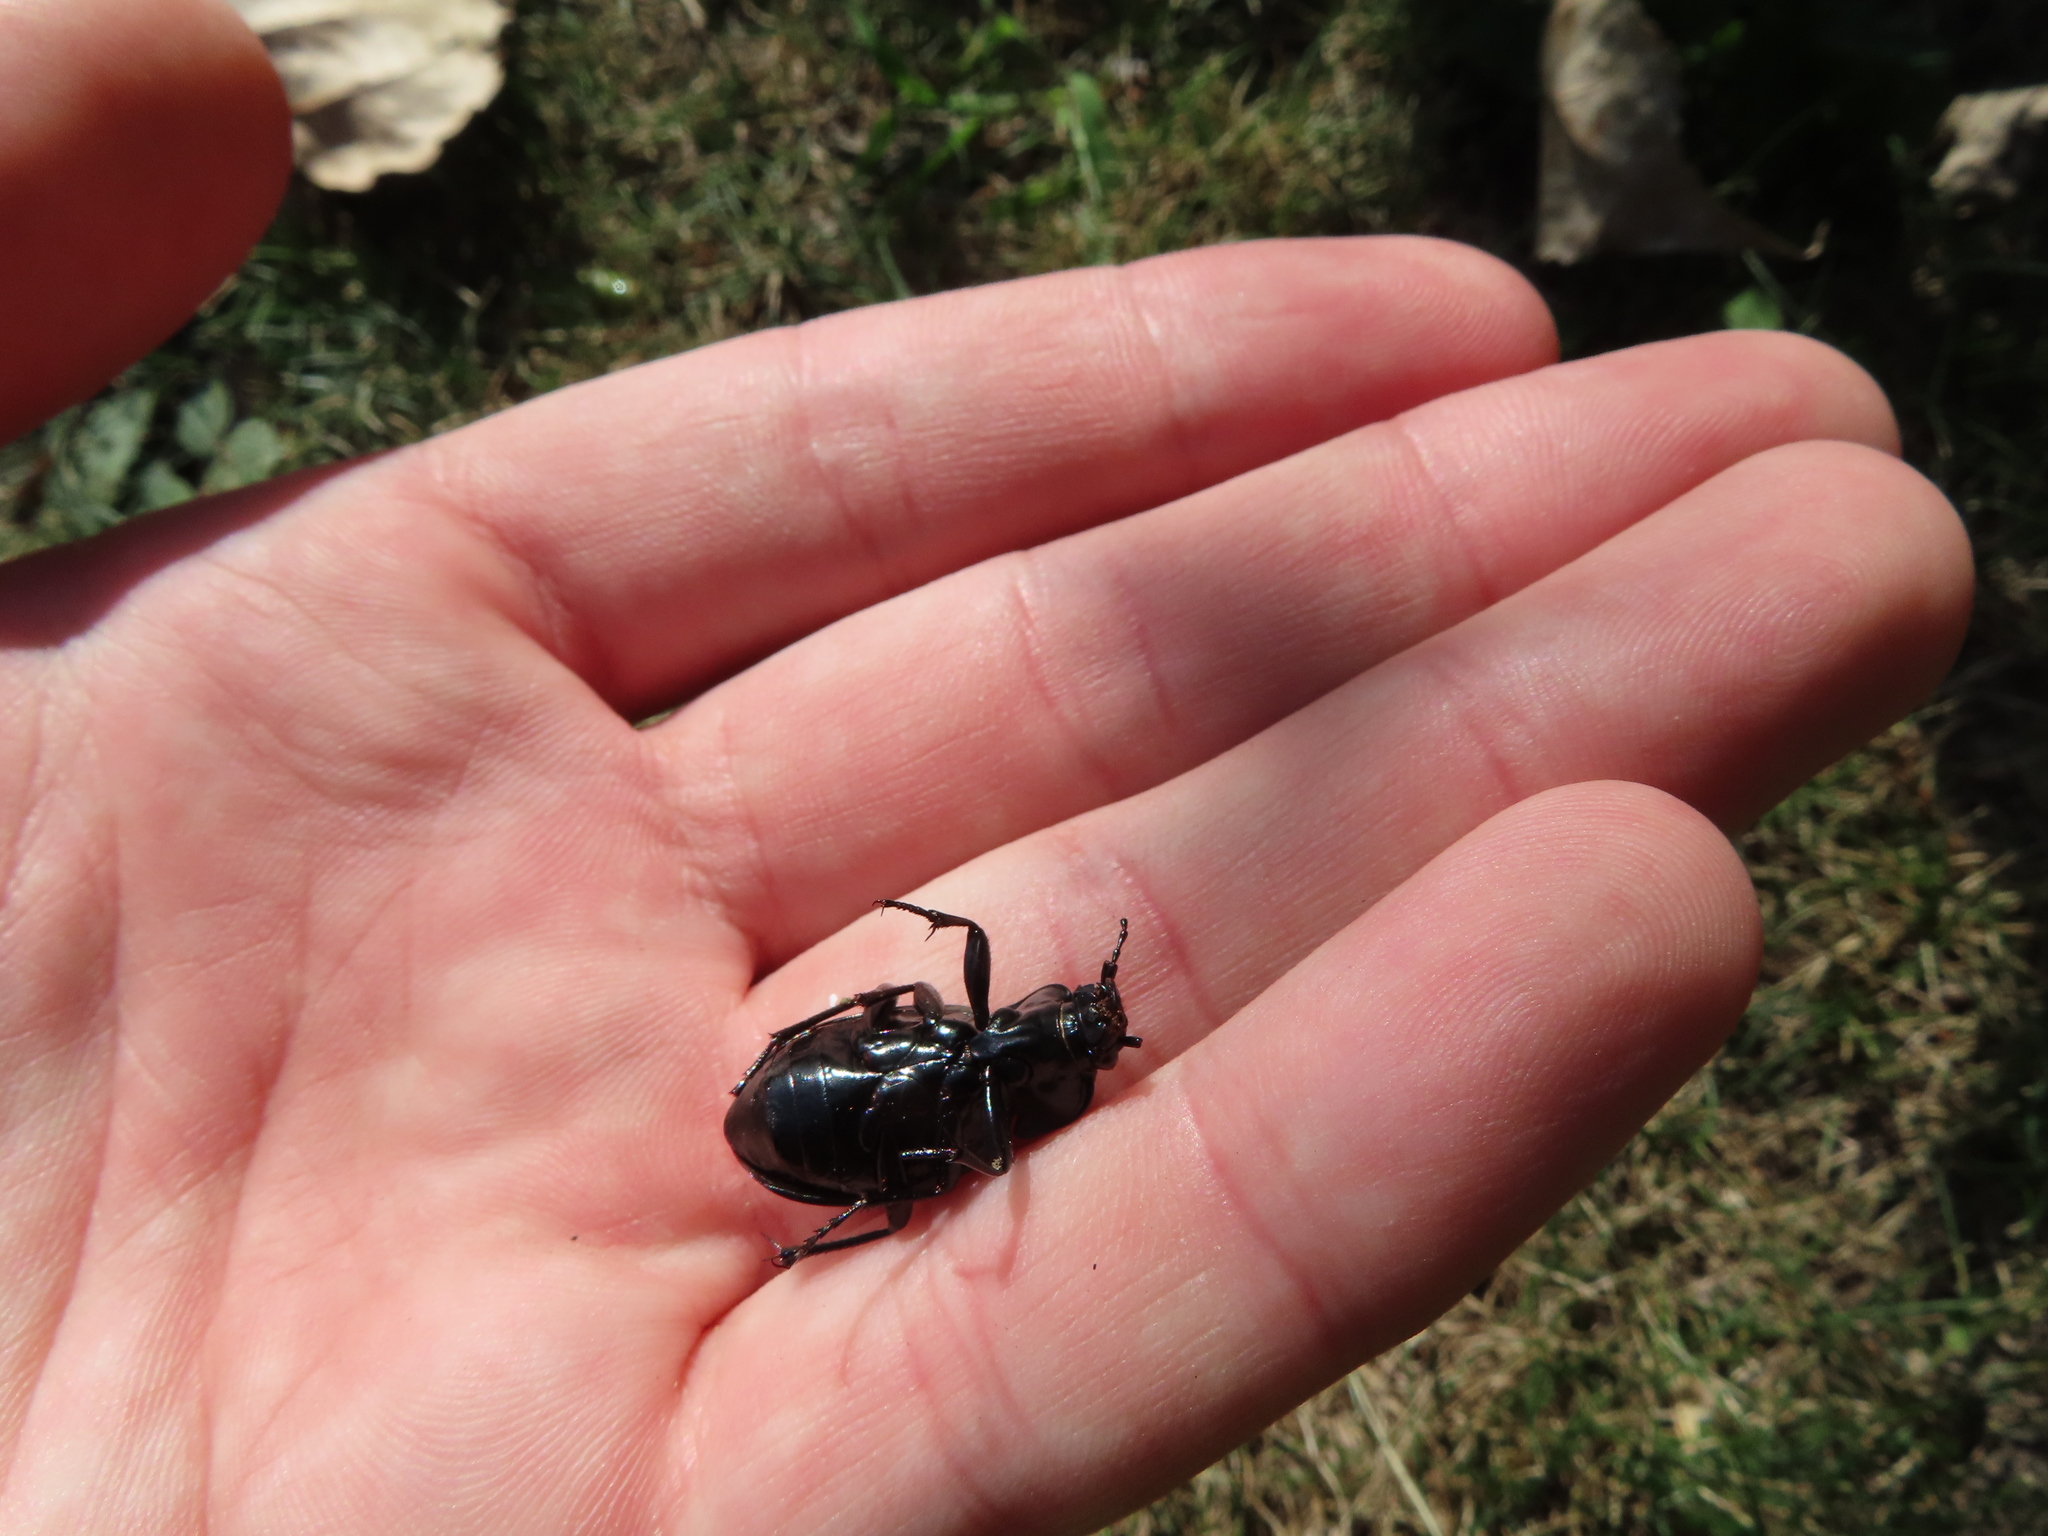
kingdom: Animalia
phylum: Arthropoda
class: Insecta
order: Coleoptera
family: Carabidae
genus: Carabus
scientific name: Carabus nemoralis
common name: European ground beetle
